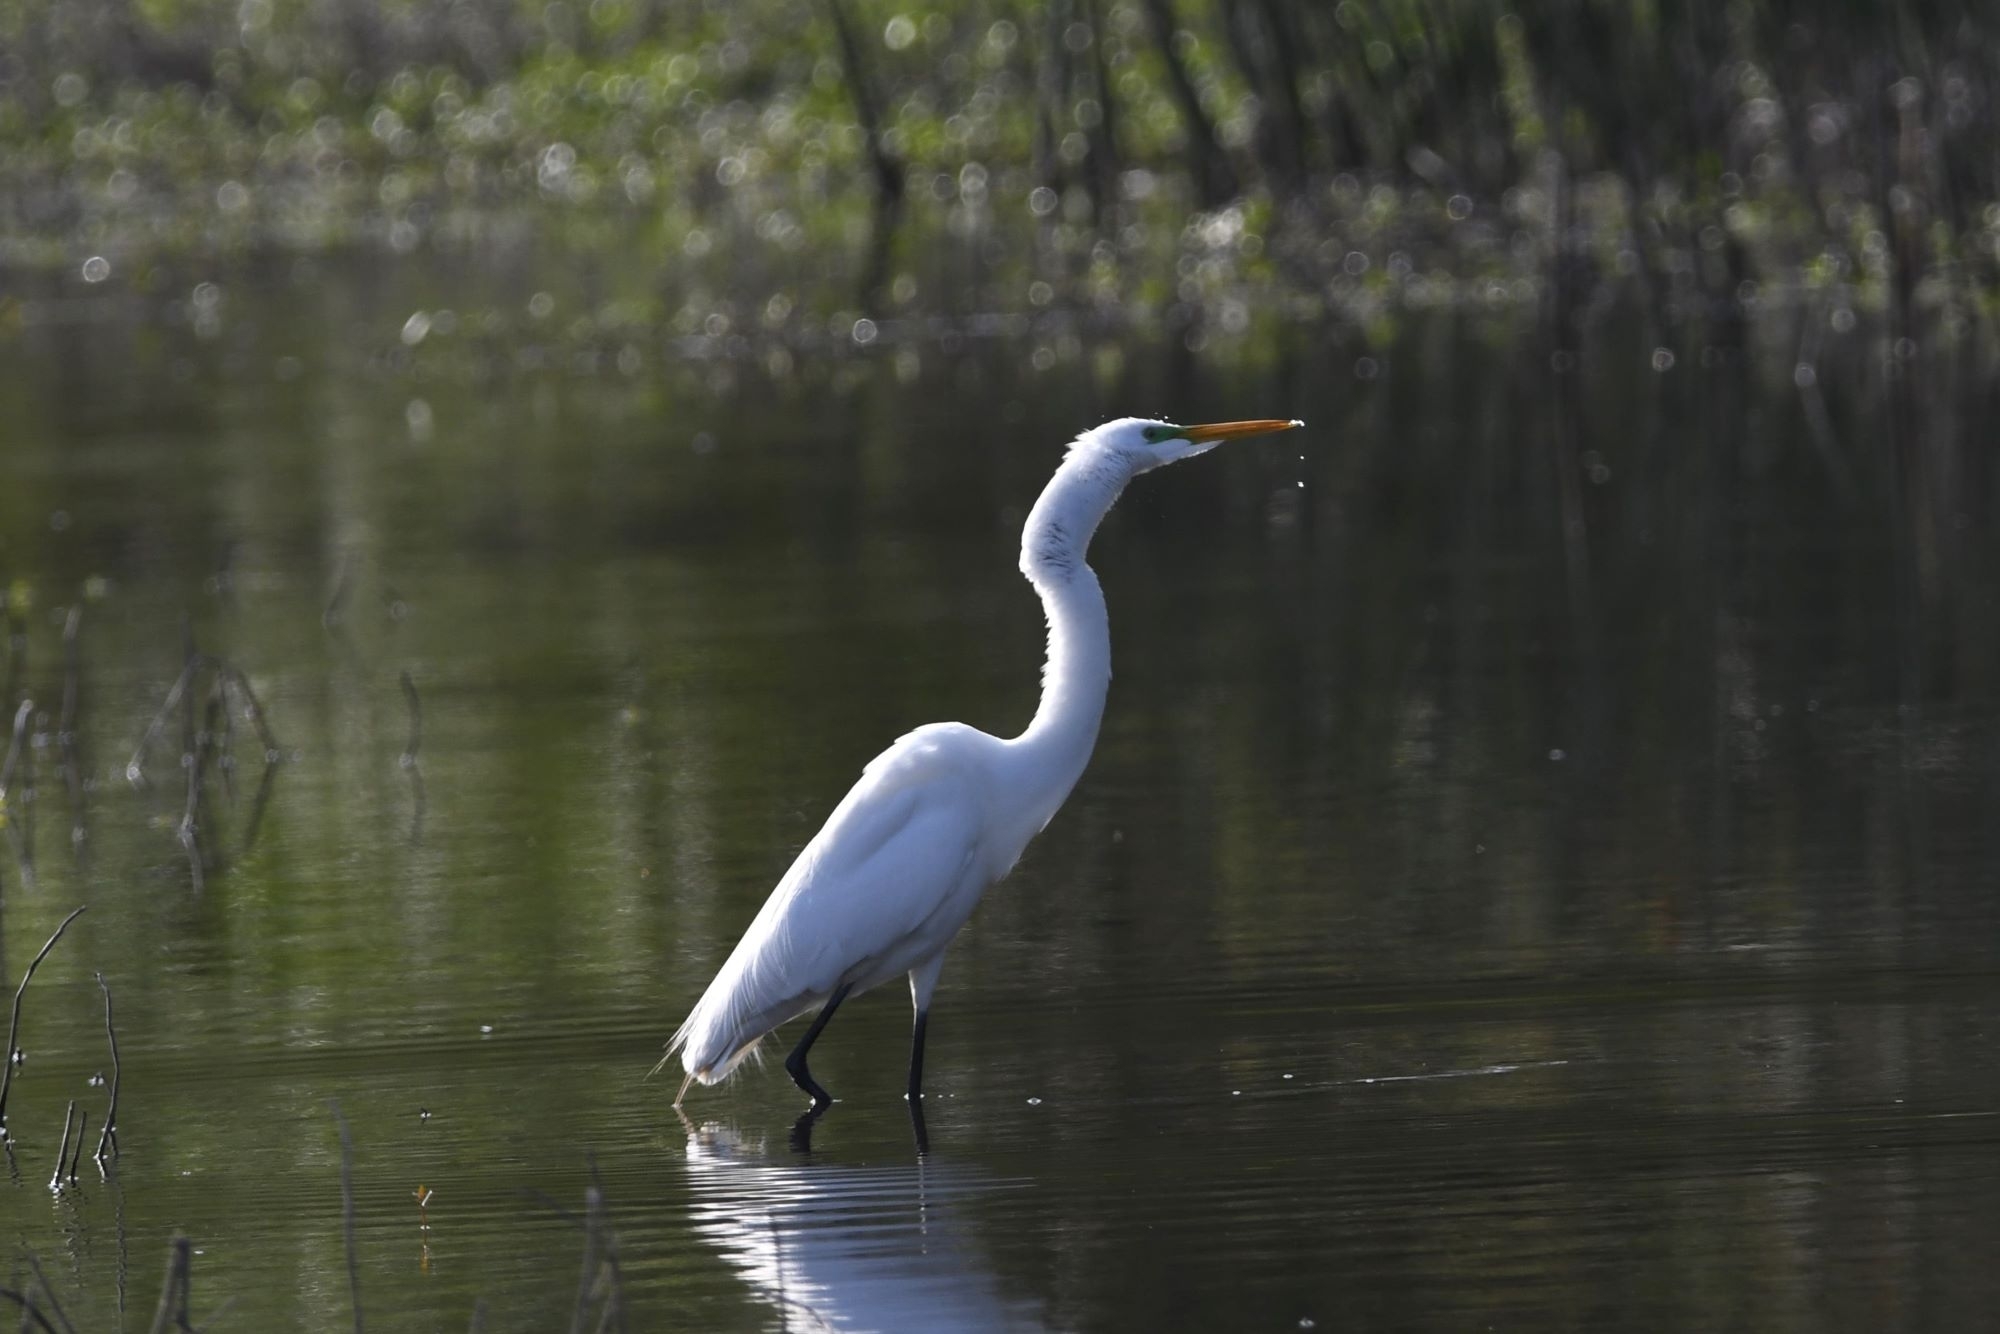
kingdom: Animalia
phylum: Chordata
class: Aves
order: Pelecaniformes
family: Ardeidae
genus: Ardea
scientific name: Ardea alba
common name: Great egret
